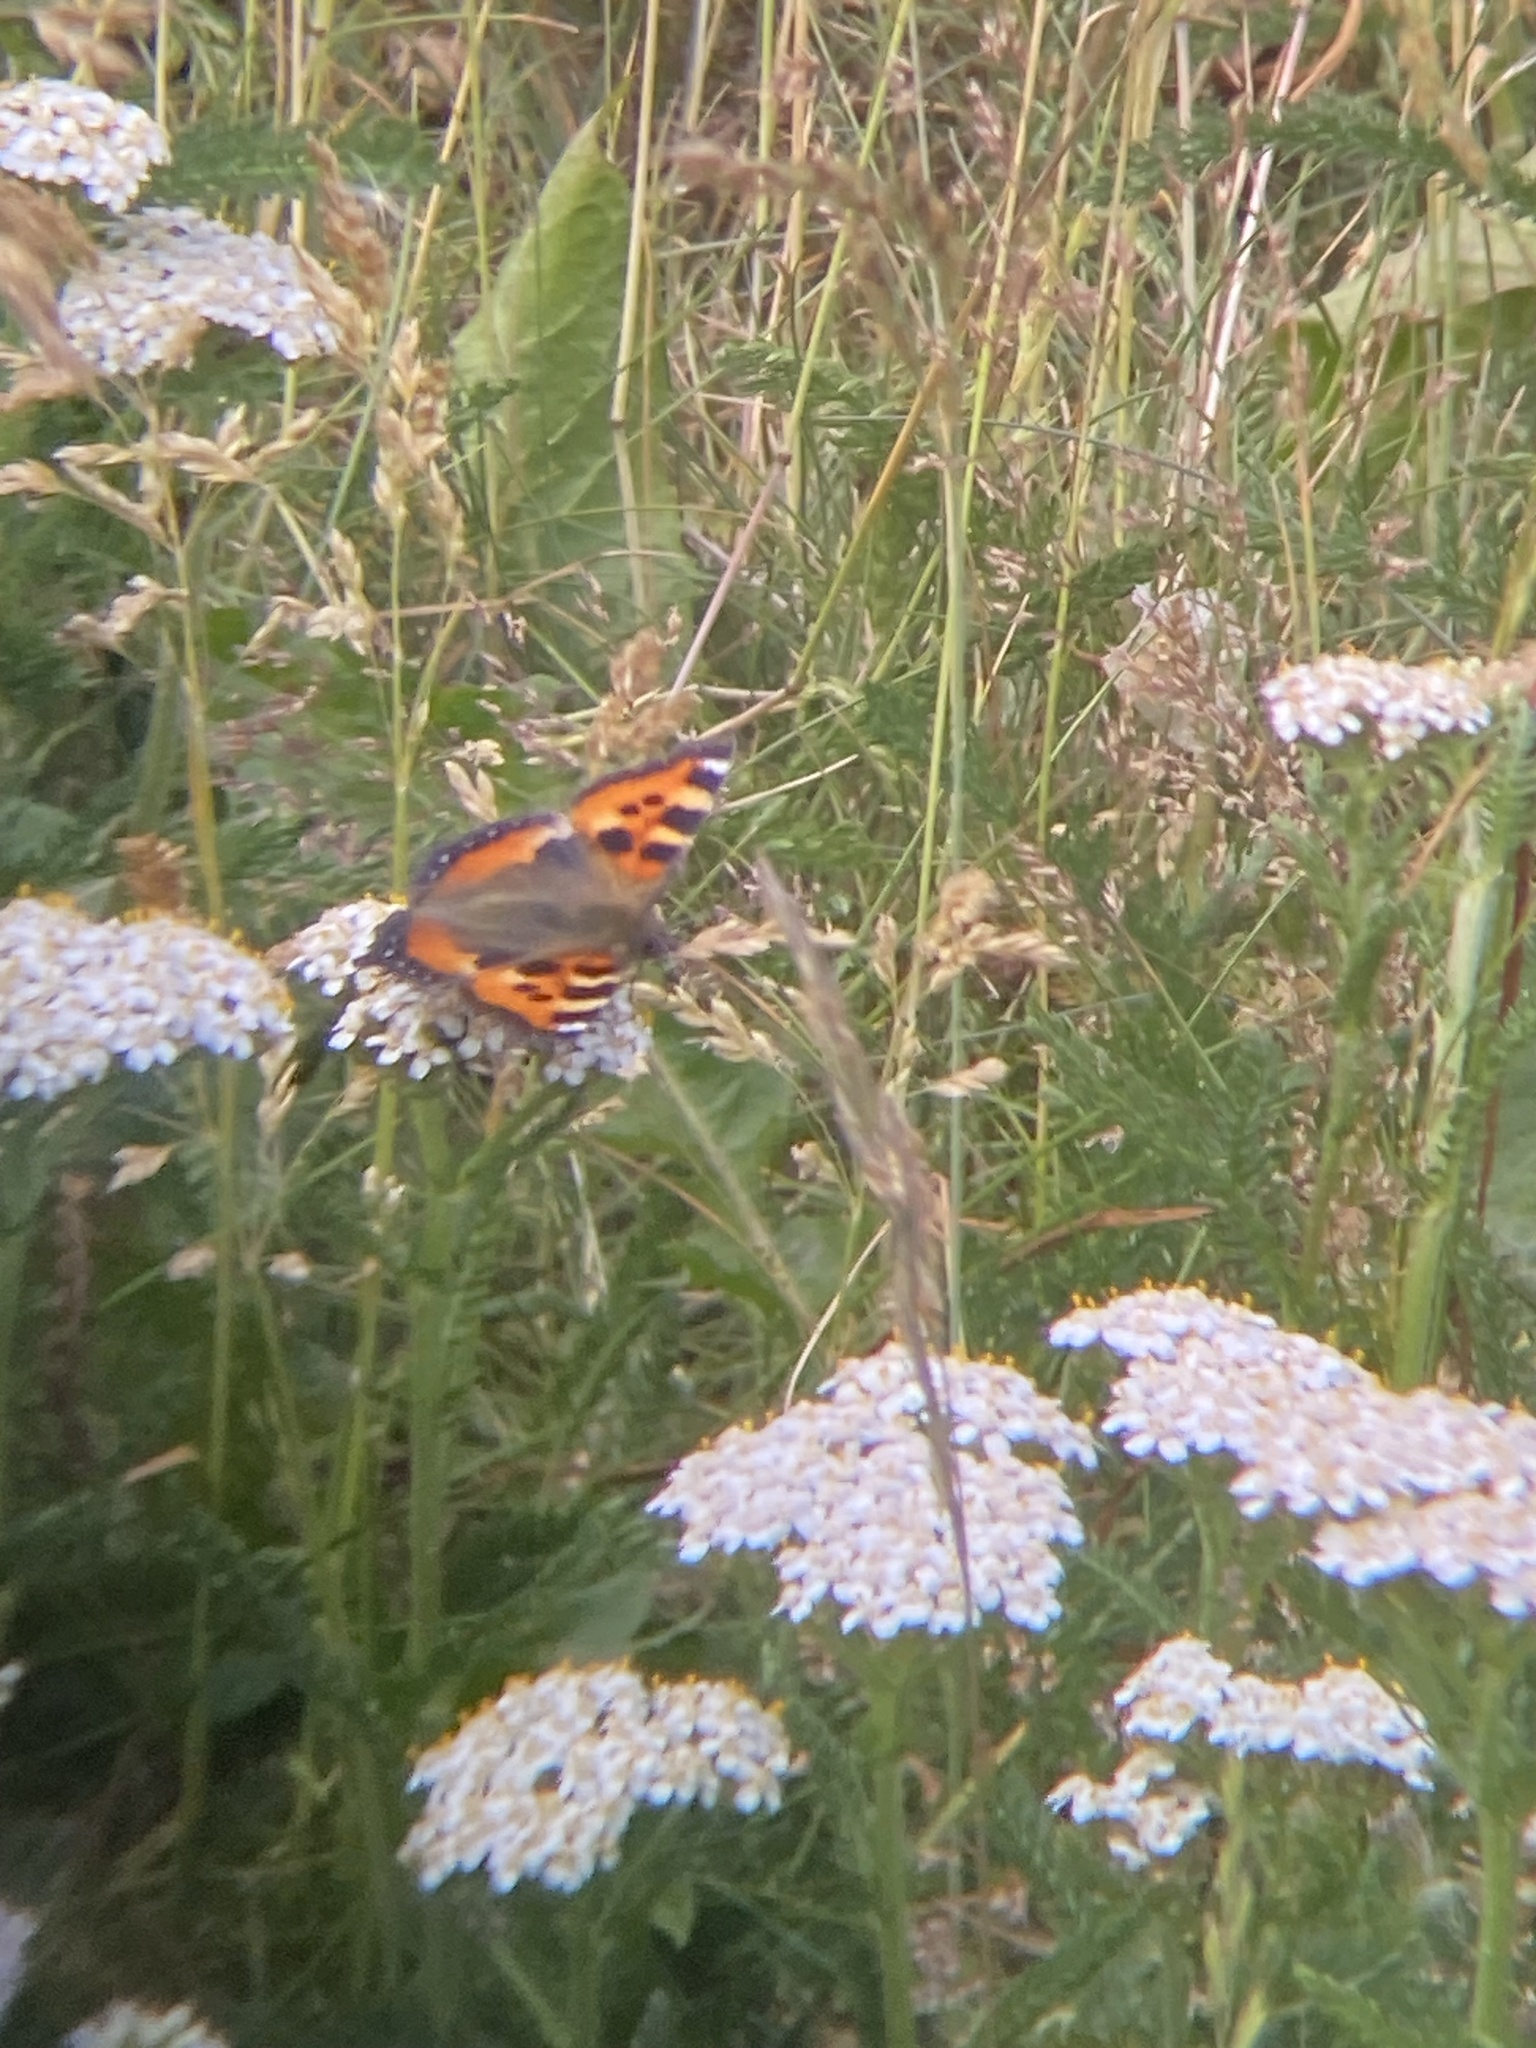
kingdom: Animalia
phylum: Arthropoda
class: Insecta
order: Lepidoptera
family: Nymphalidae
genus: Aglais
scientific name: Aglais urticae
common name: Small tortoiseshell
